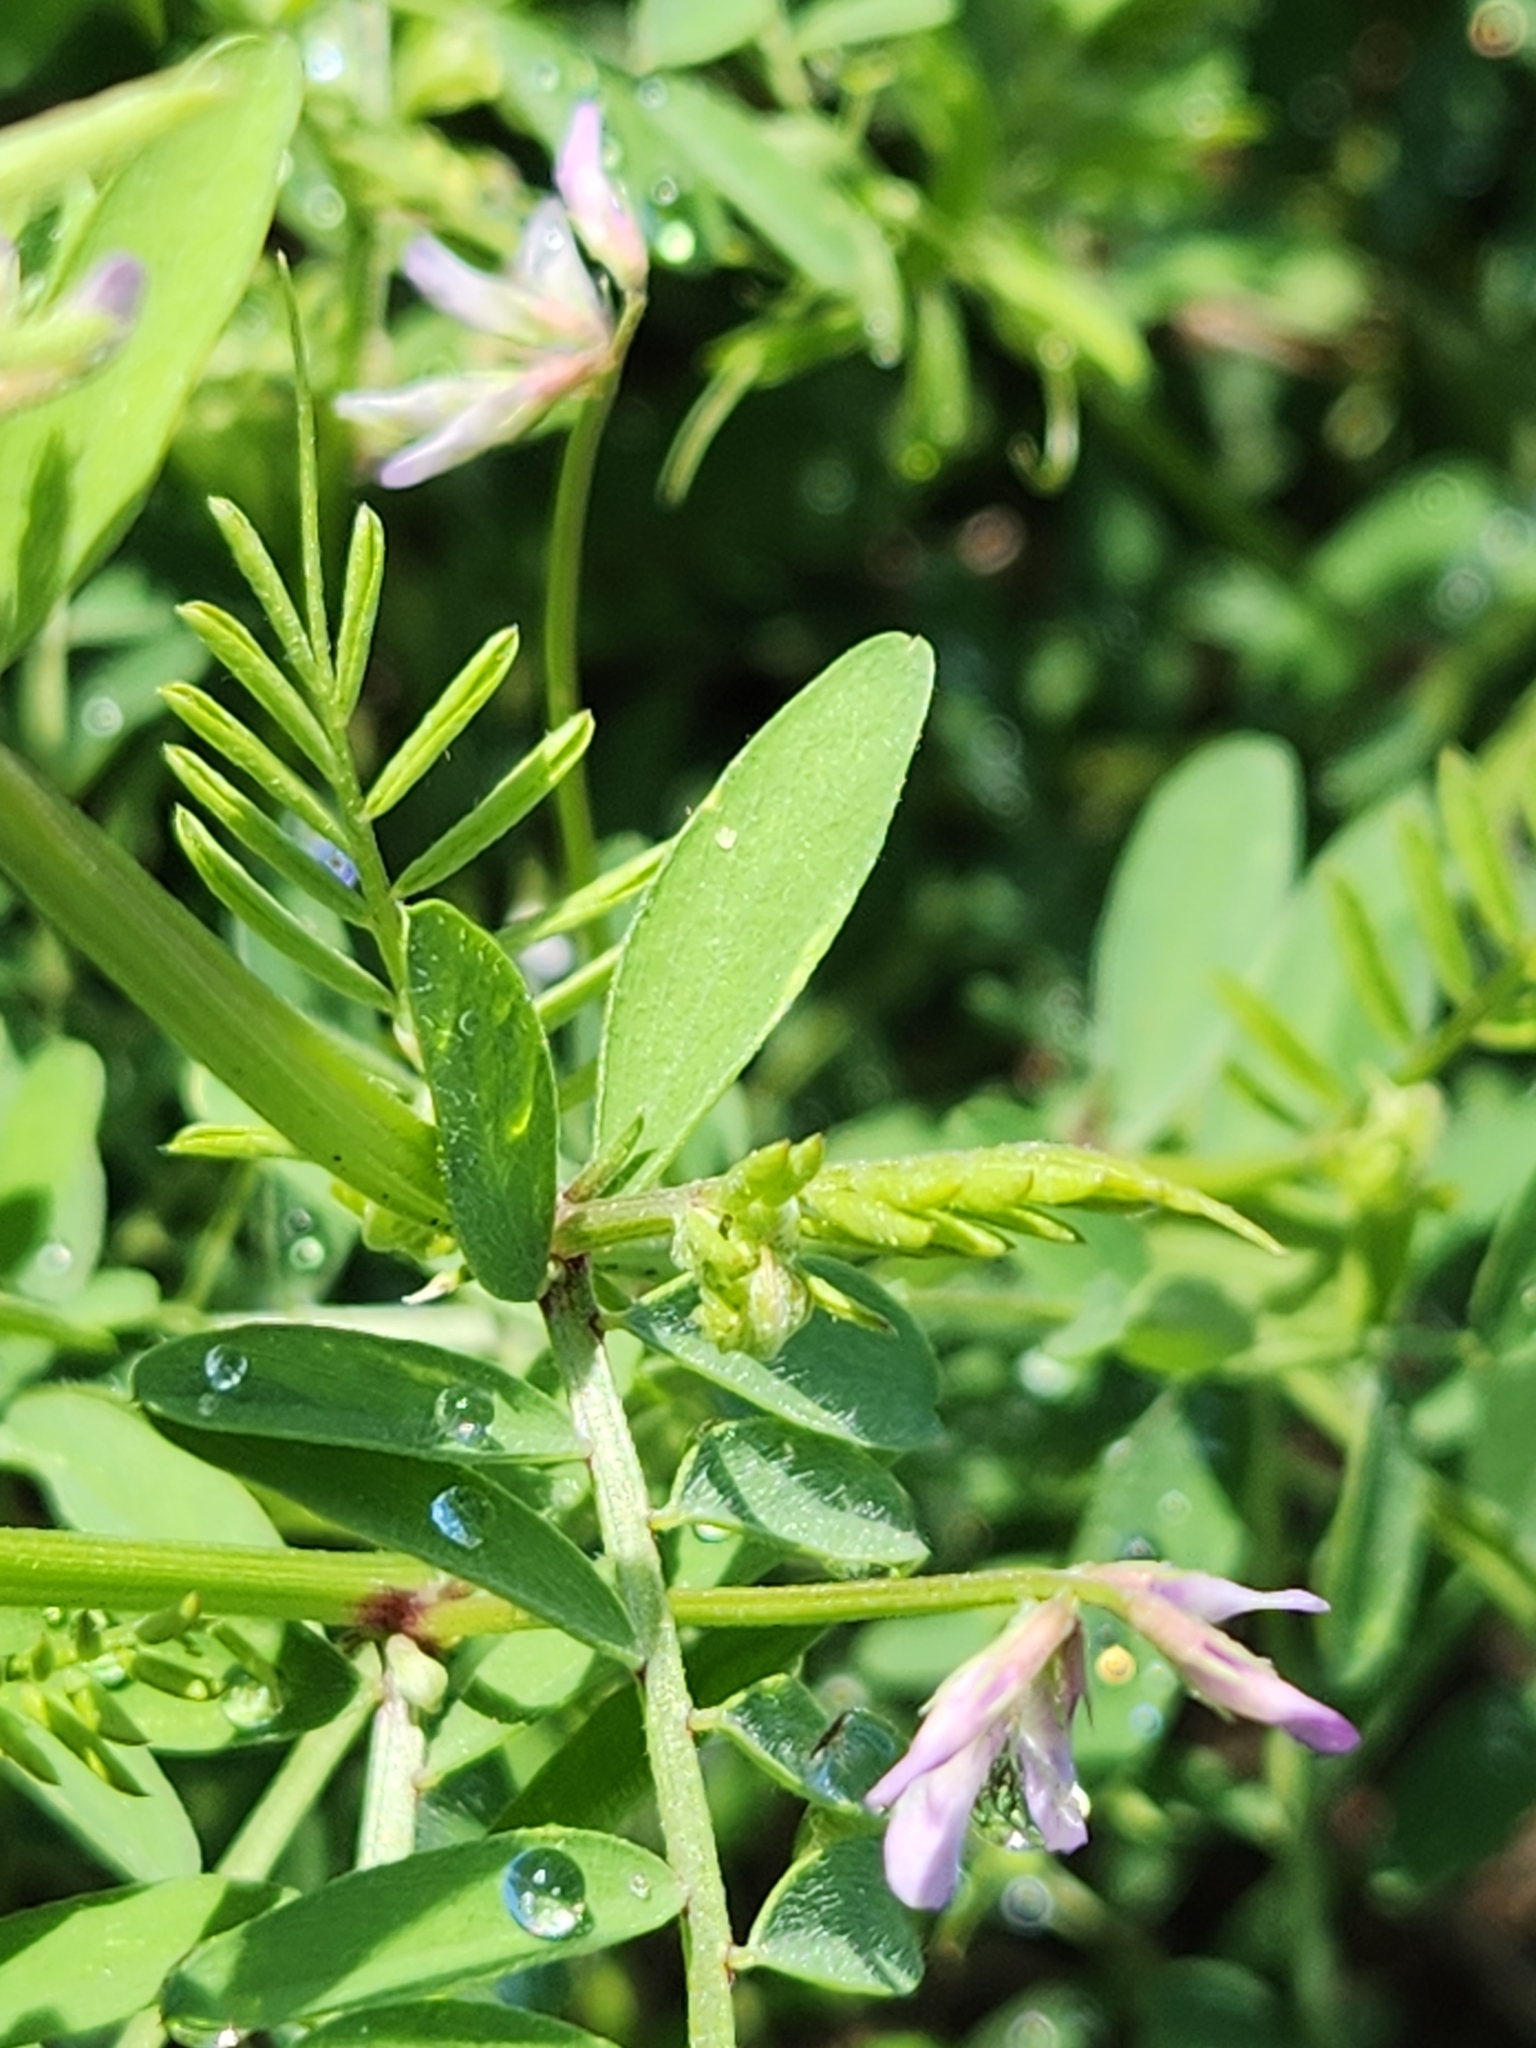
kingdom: Plantae
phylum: Tracheophyta
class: Magnoliopsida
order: Fabales
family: Fabaceae
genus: Vicia
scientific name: Vicia ludoviciana
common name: Louisiana vetch
